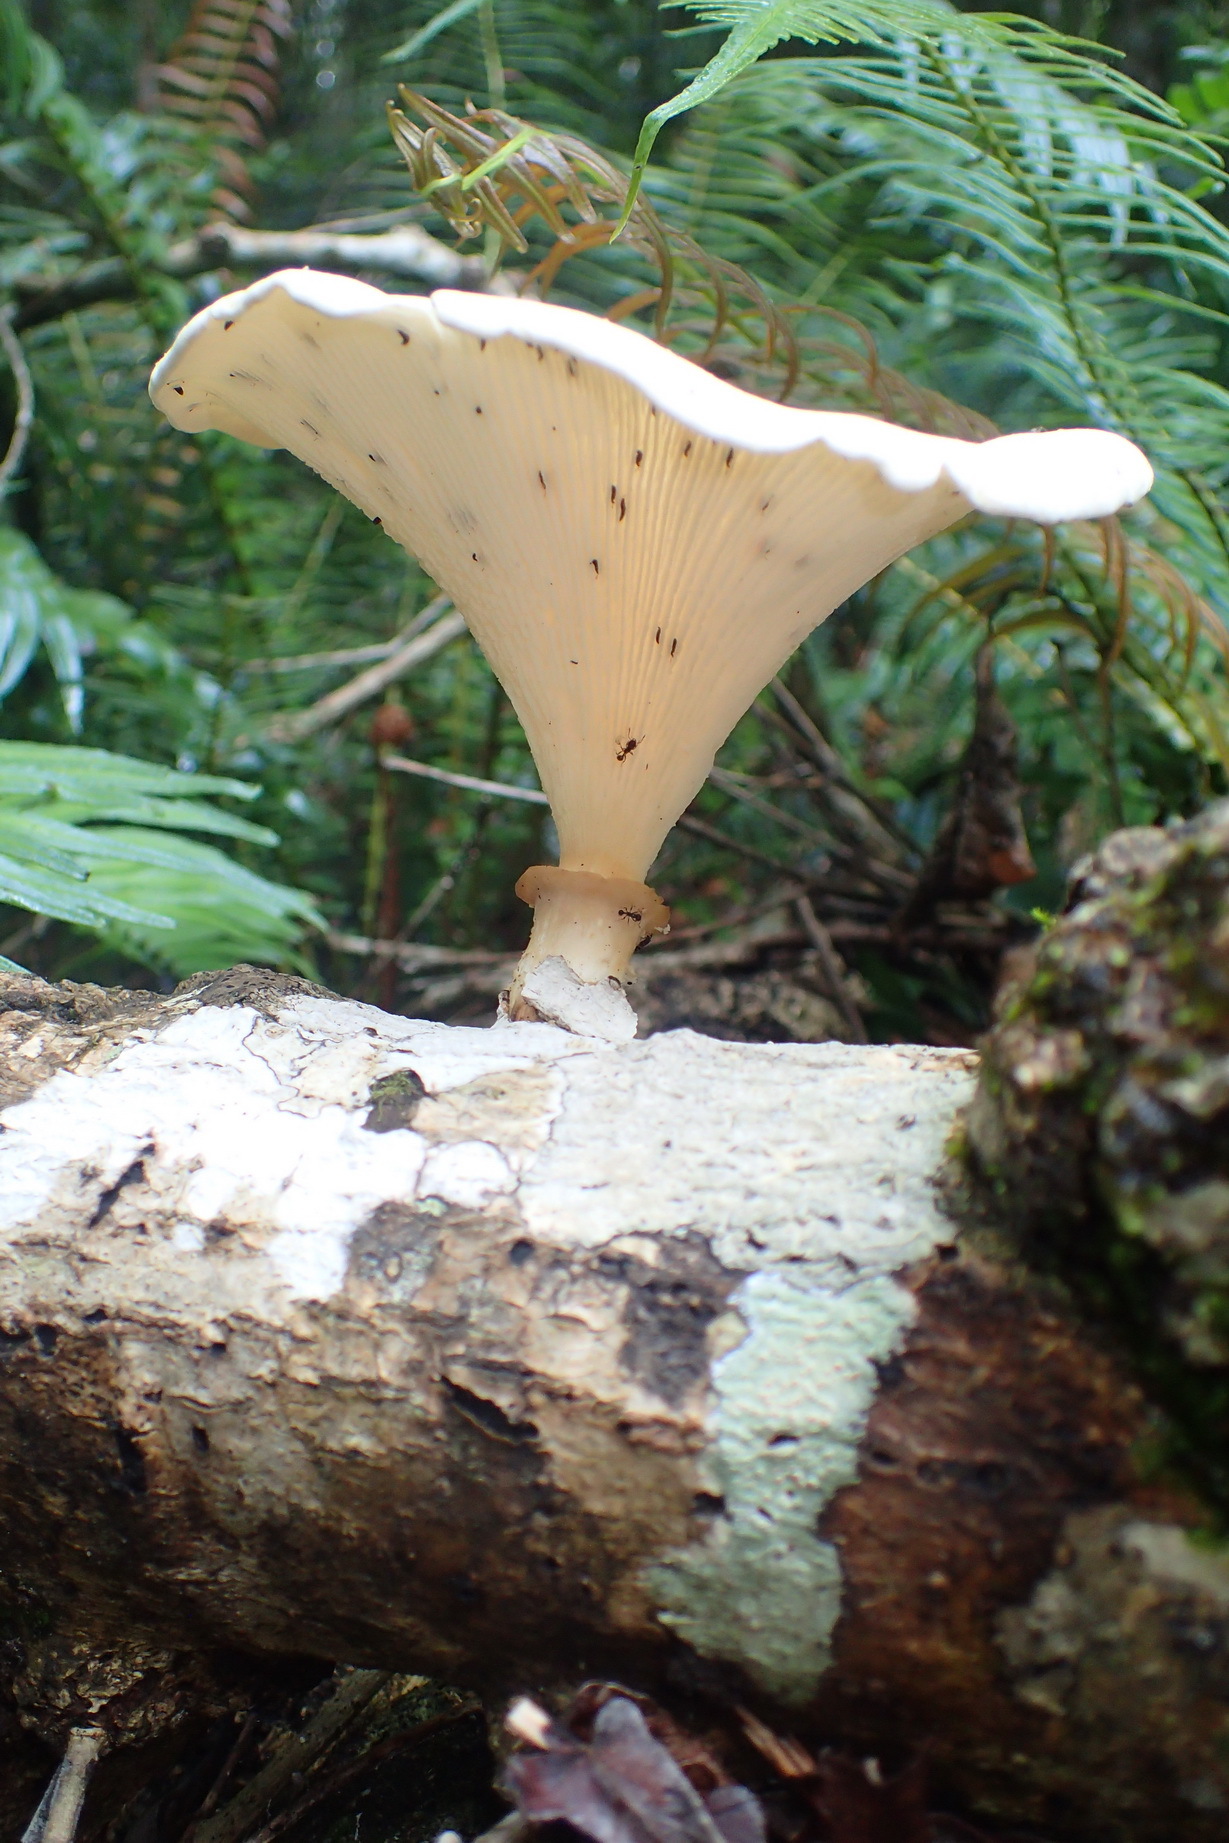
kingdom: Fungi
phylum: Basidiomycota
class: Agaricomycetes
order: Polyporales
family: Polyporaceae
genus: Lentinus
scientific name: Lentinus sajor-caju
